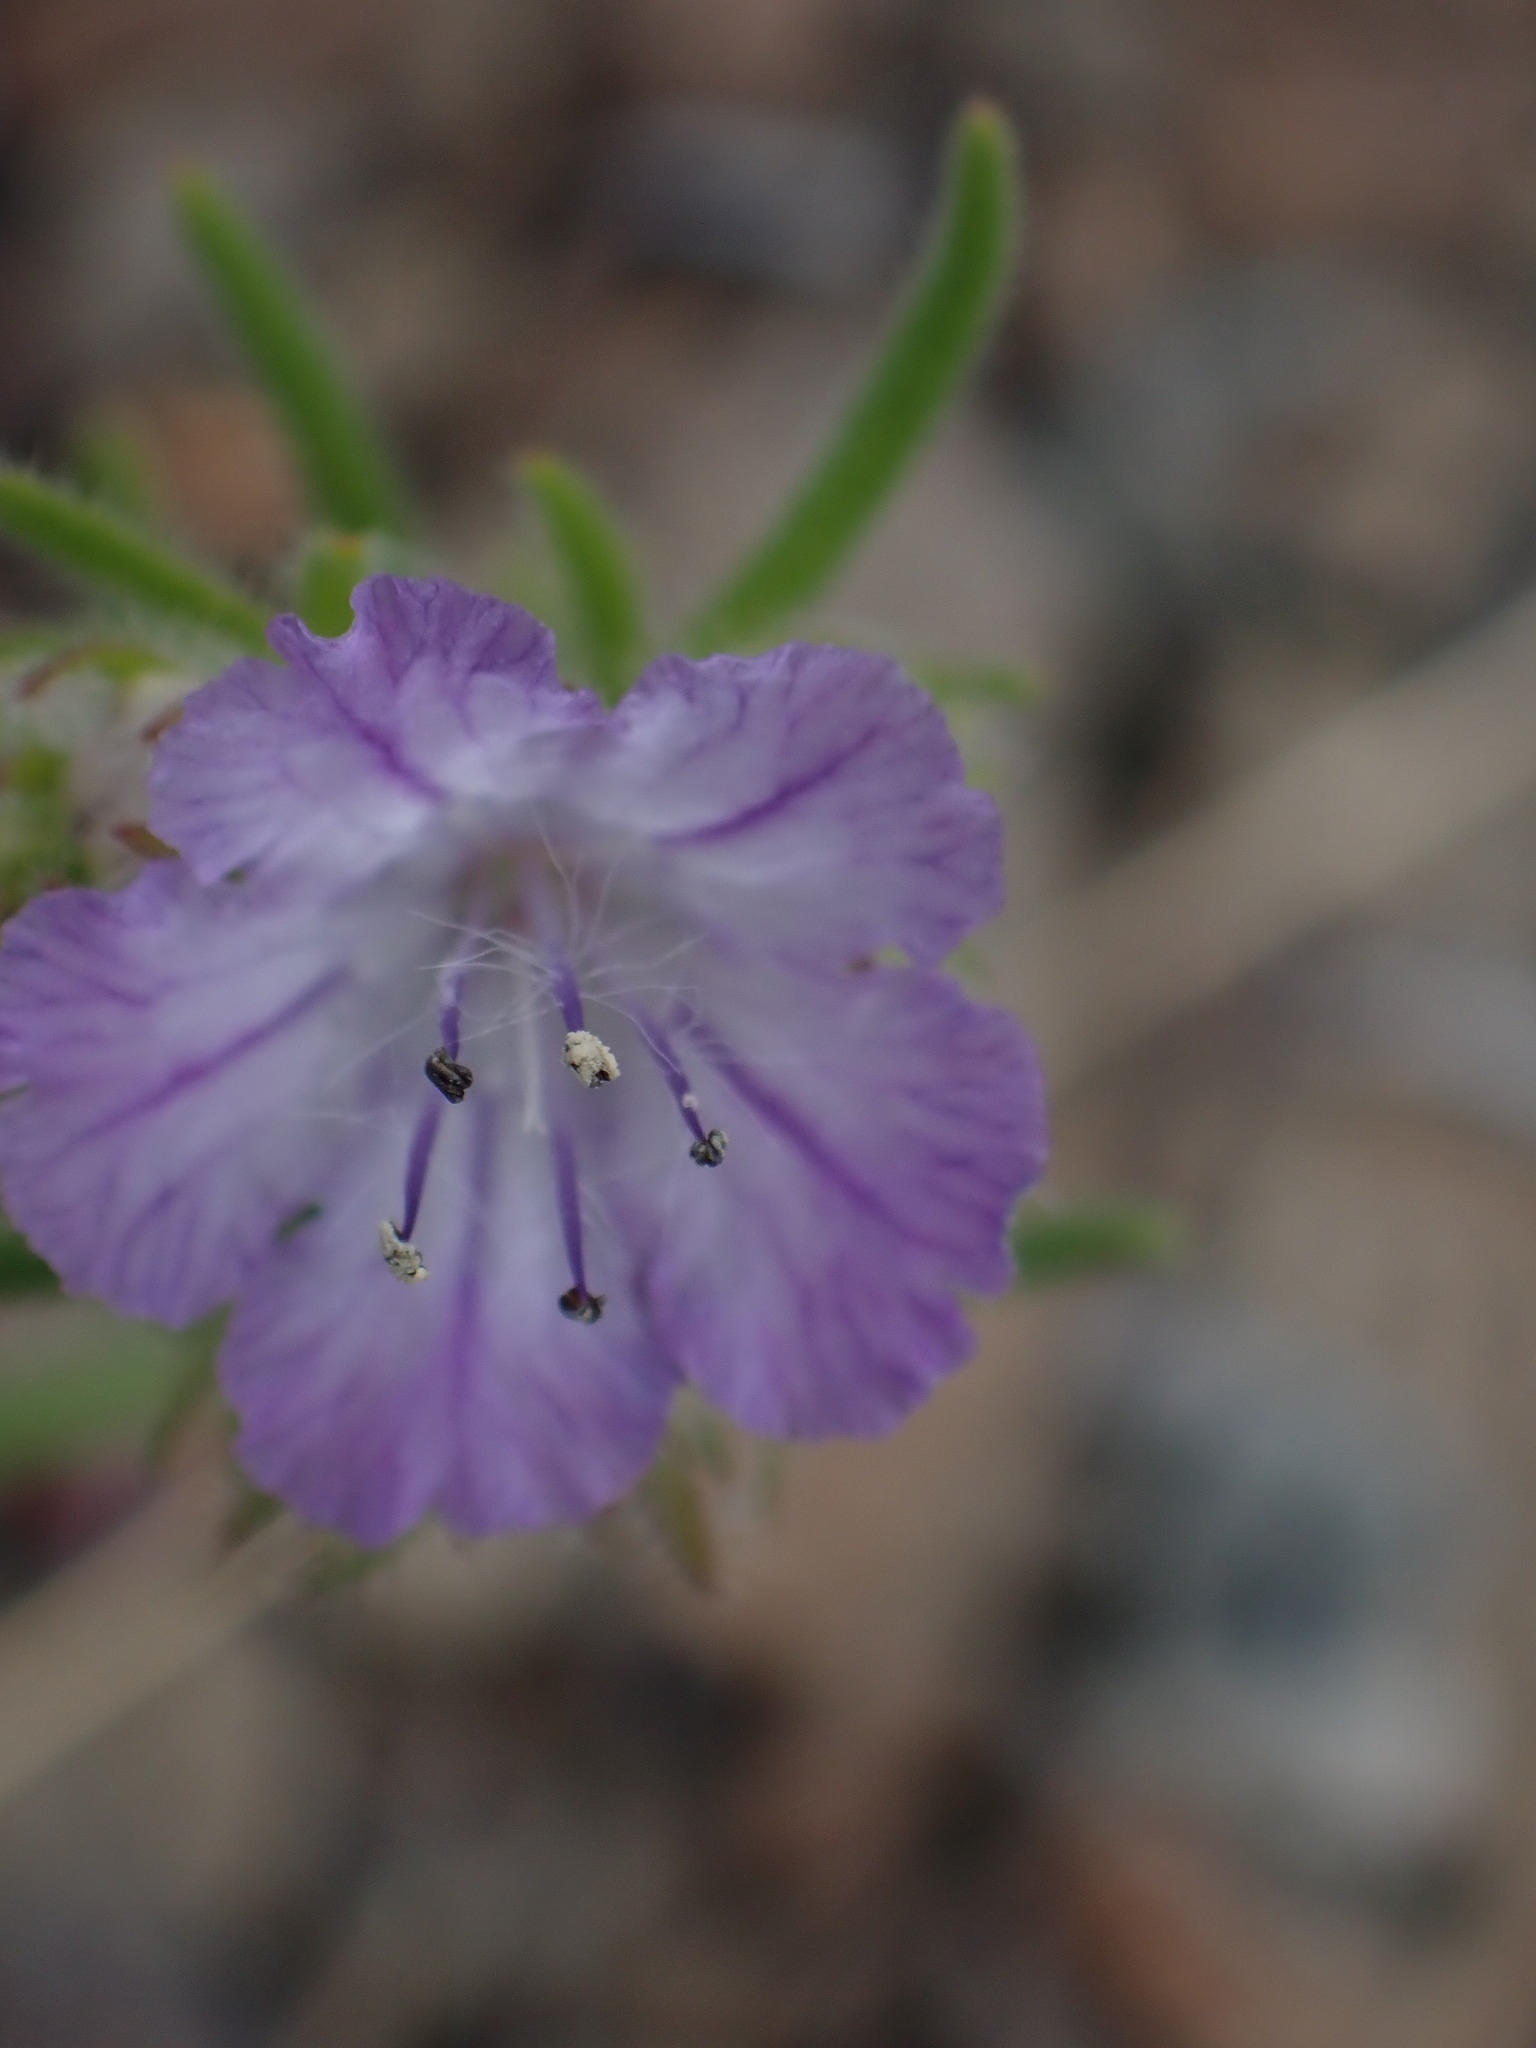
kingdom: Plantae
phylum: Tracheophyta
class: Magnoliopsida
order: Boraginales
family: Hydrophyllaceae
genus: Phacelia
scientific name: Phacelia linearis
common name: Linear-leaved phacelia
